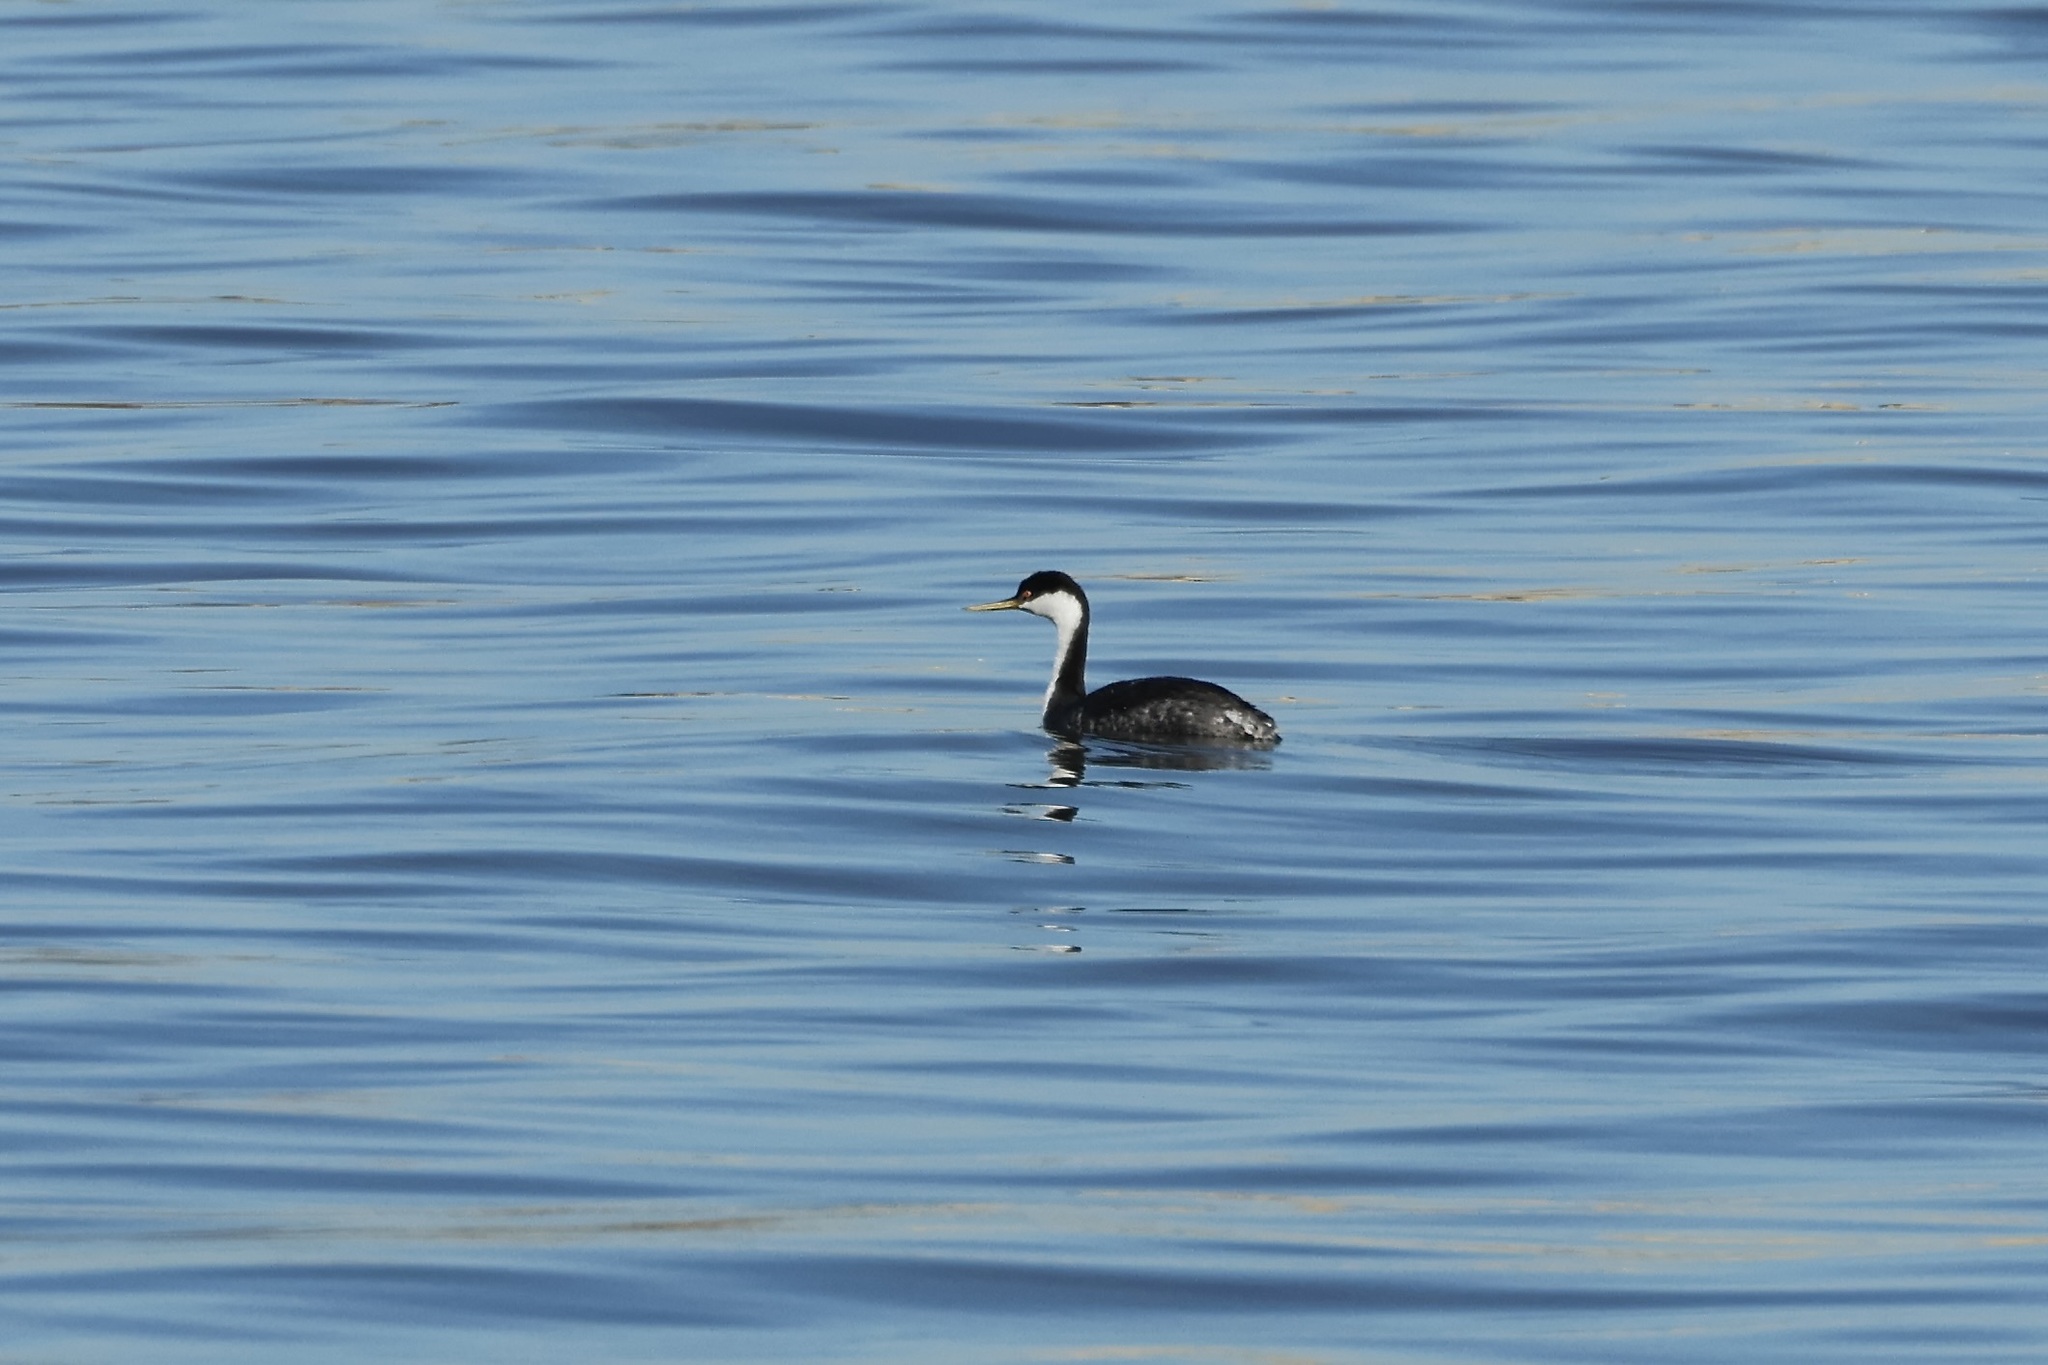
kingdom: Animalia
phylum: Chordata
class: Aves
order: Podicipediformes
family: Podicipedidae
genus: Aechmophorus
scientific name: Aechmophorus occidentalis
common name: Western grebe
